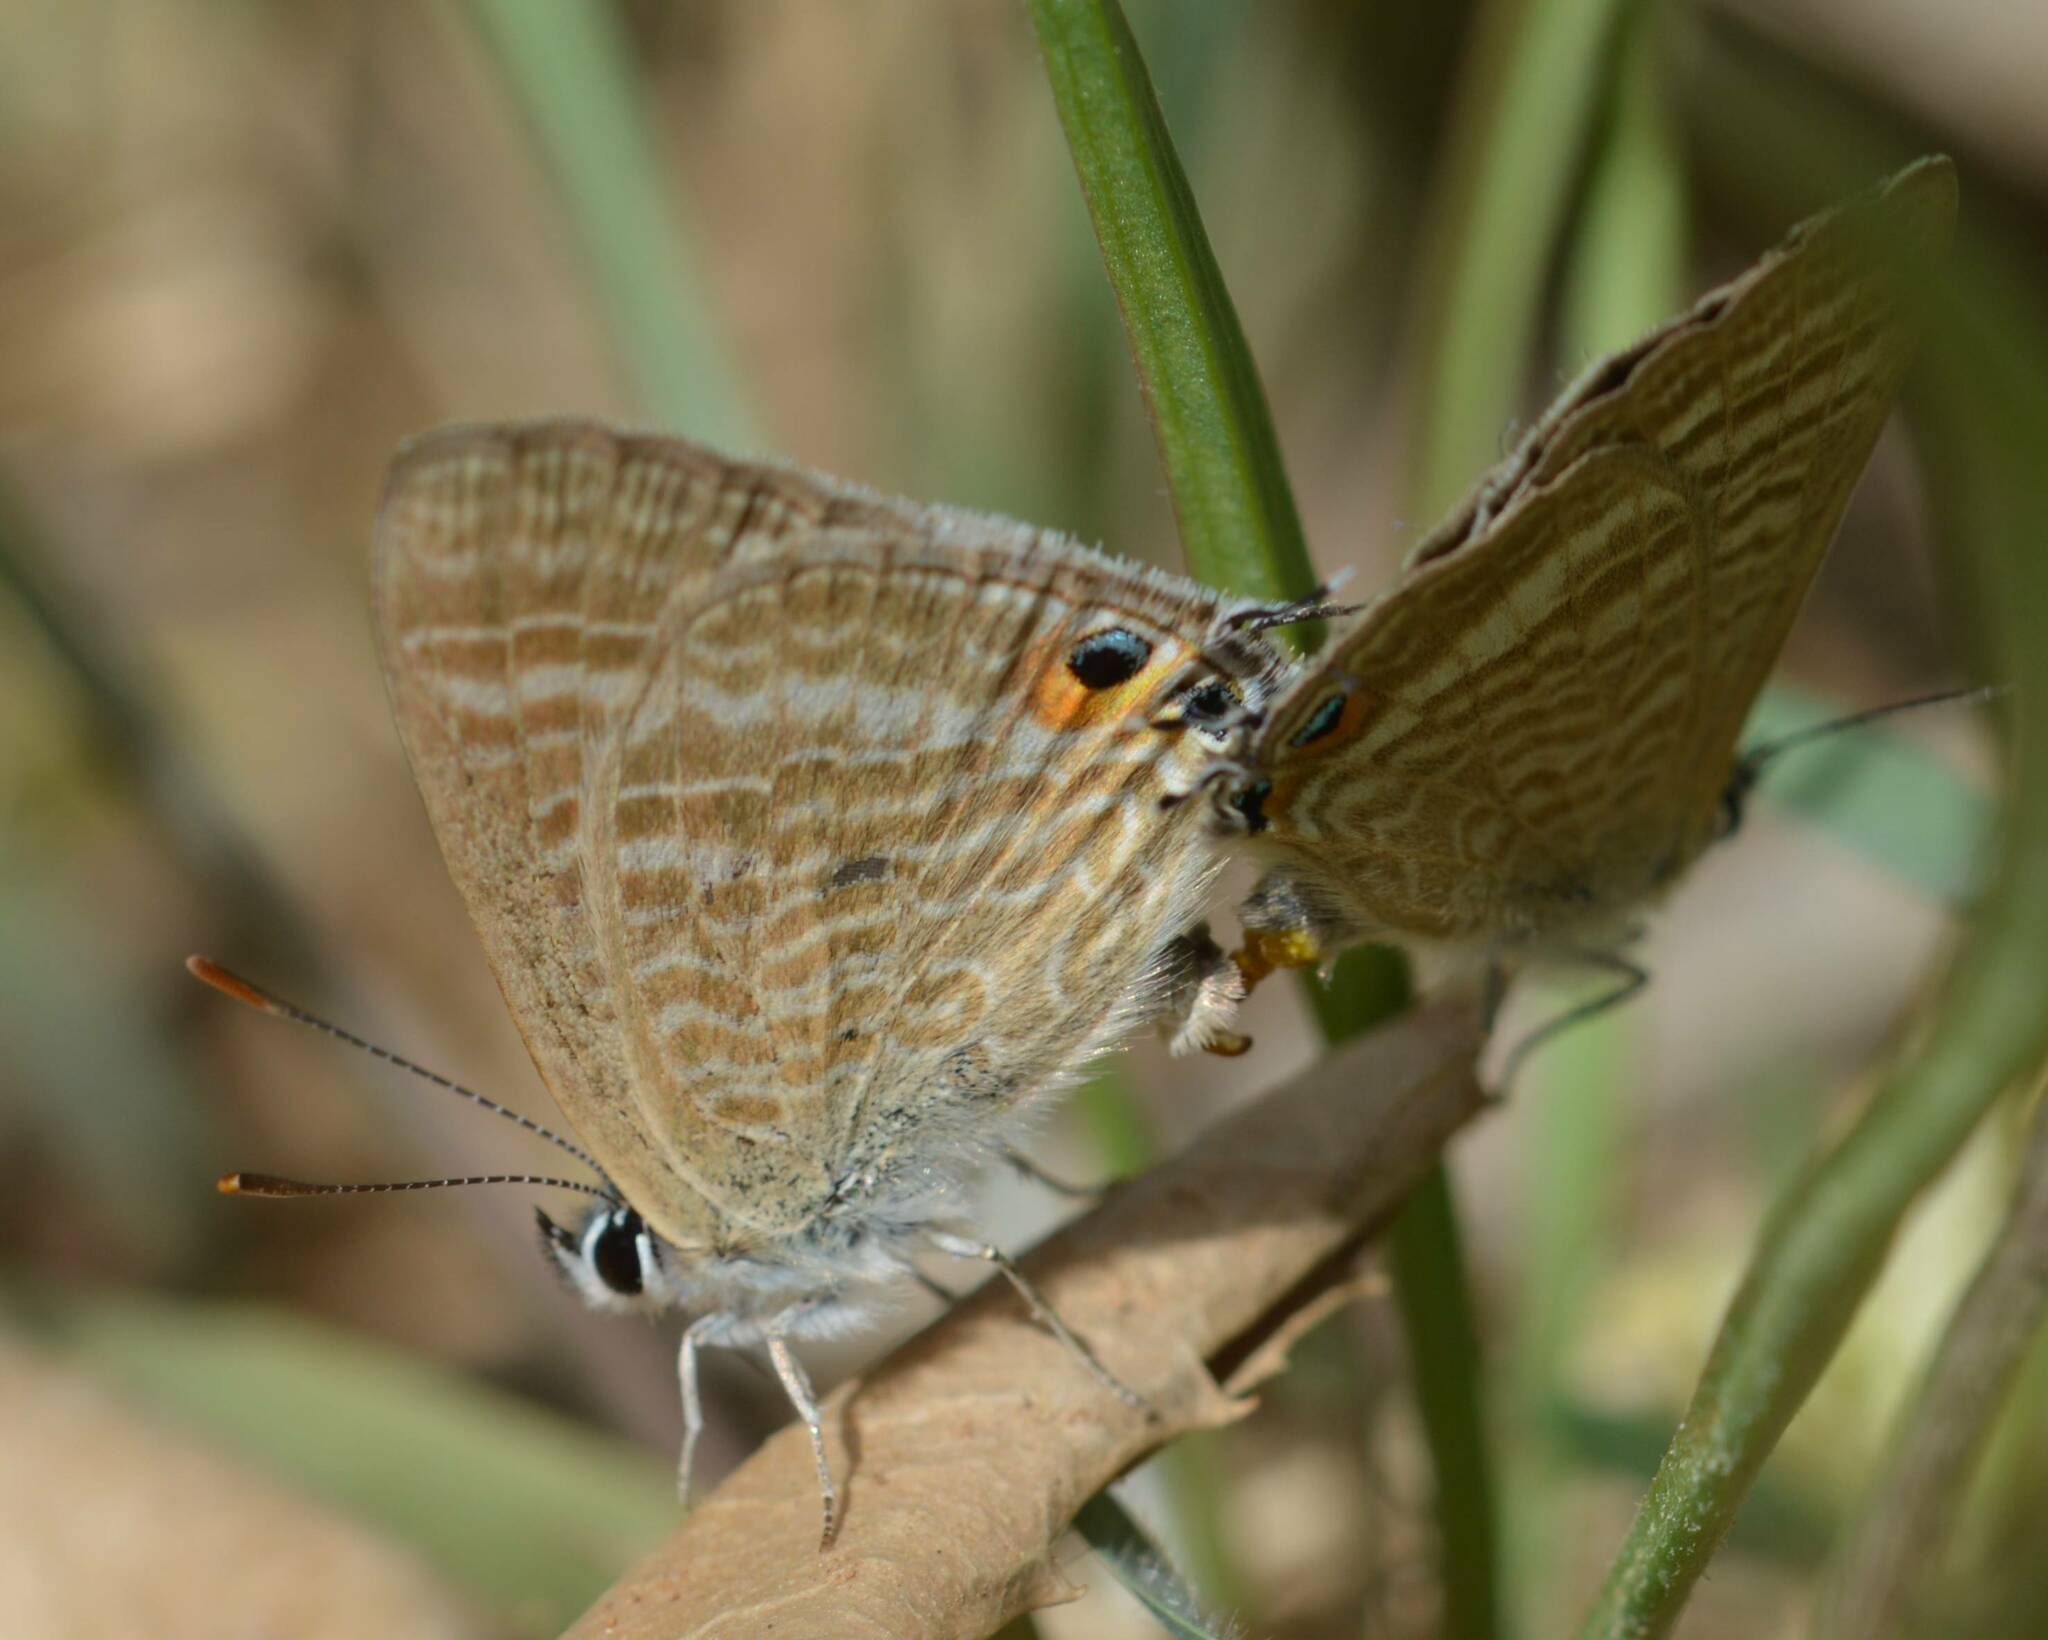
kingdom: Animalia
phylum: Arthropoda
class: Insecta
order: Lepidoptera
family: Lycaenidae
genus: Lampides
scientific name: Lampides boeticus
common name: Long-tailed blue
